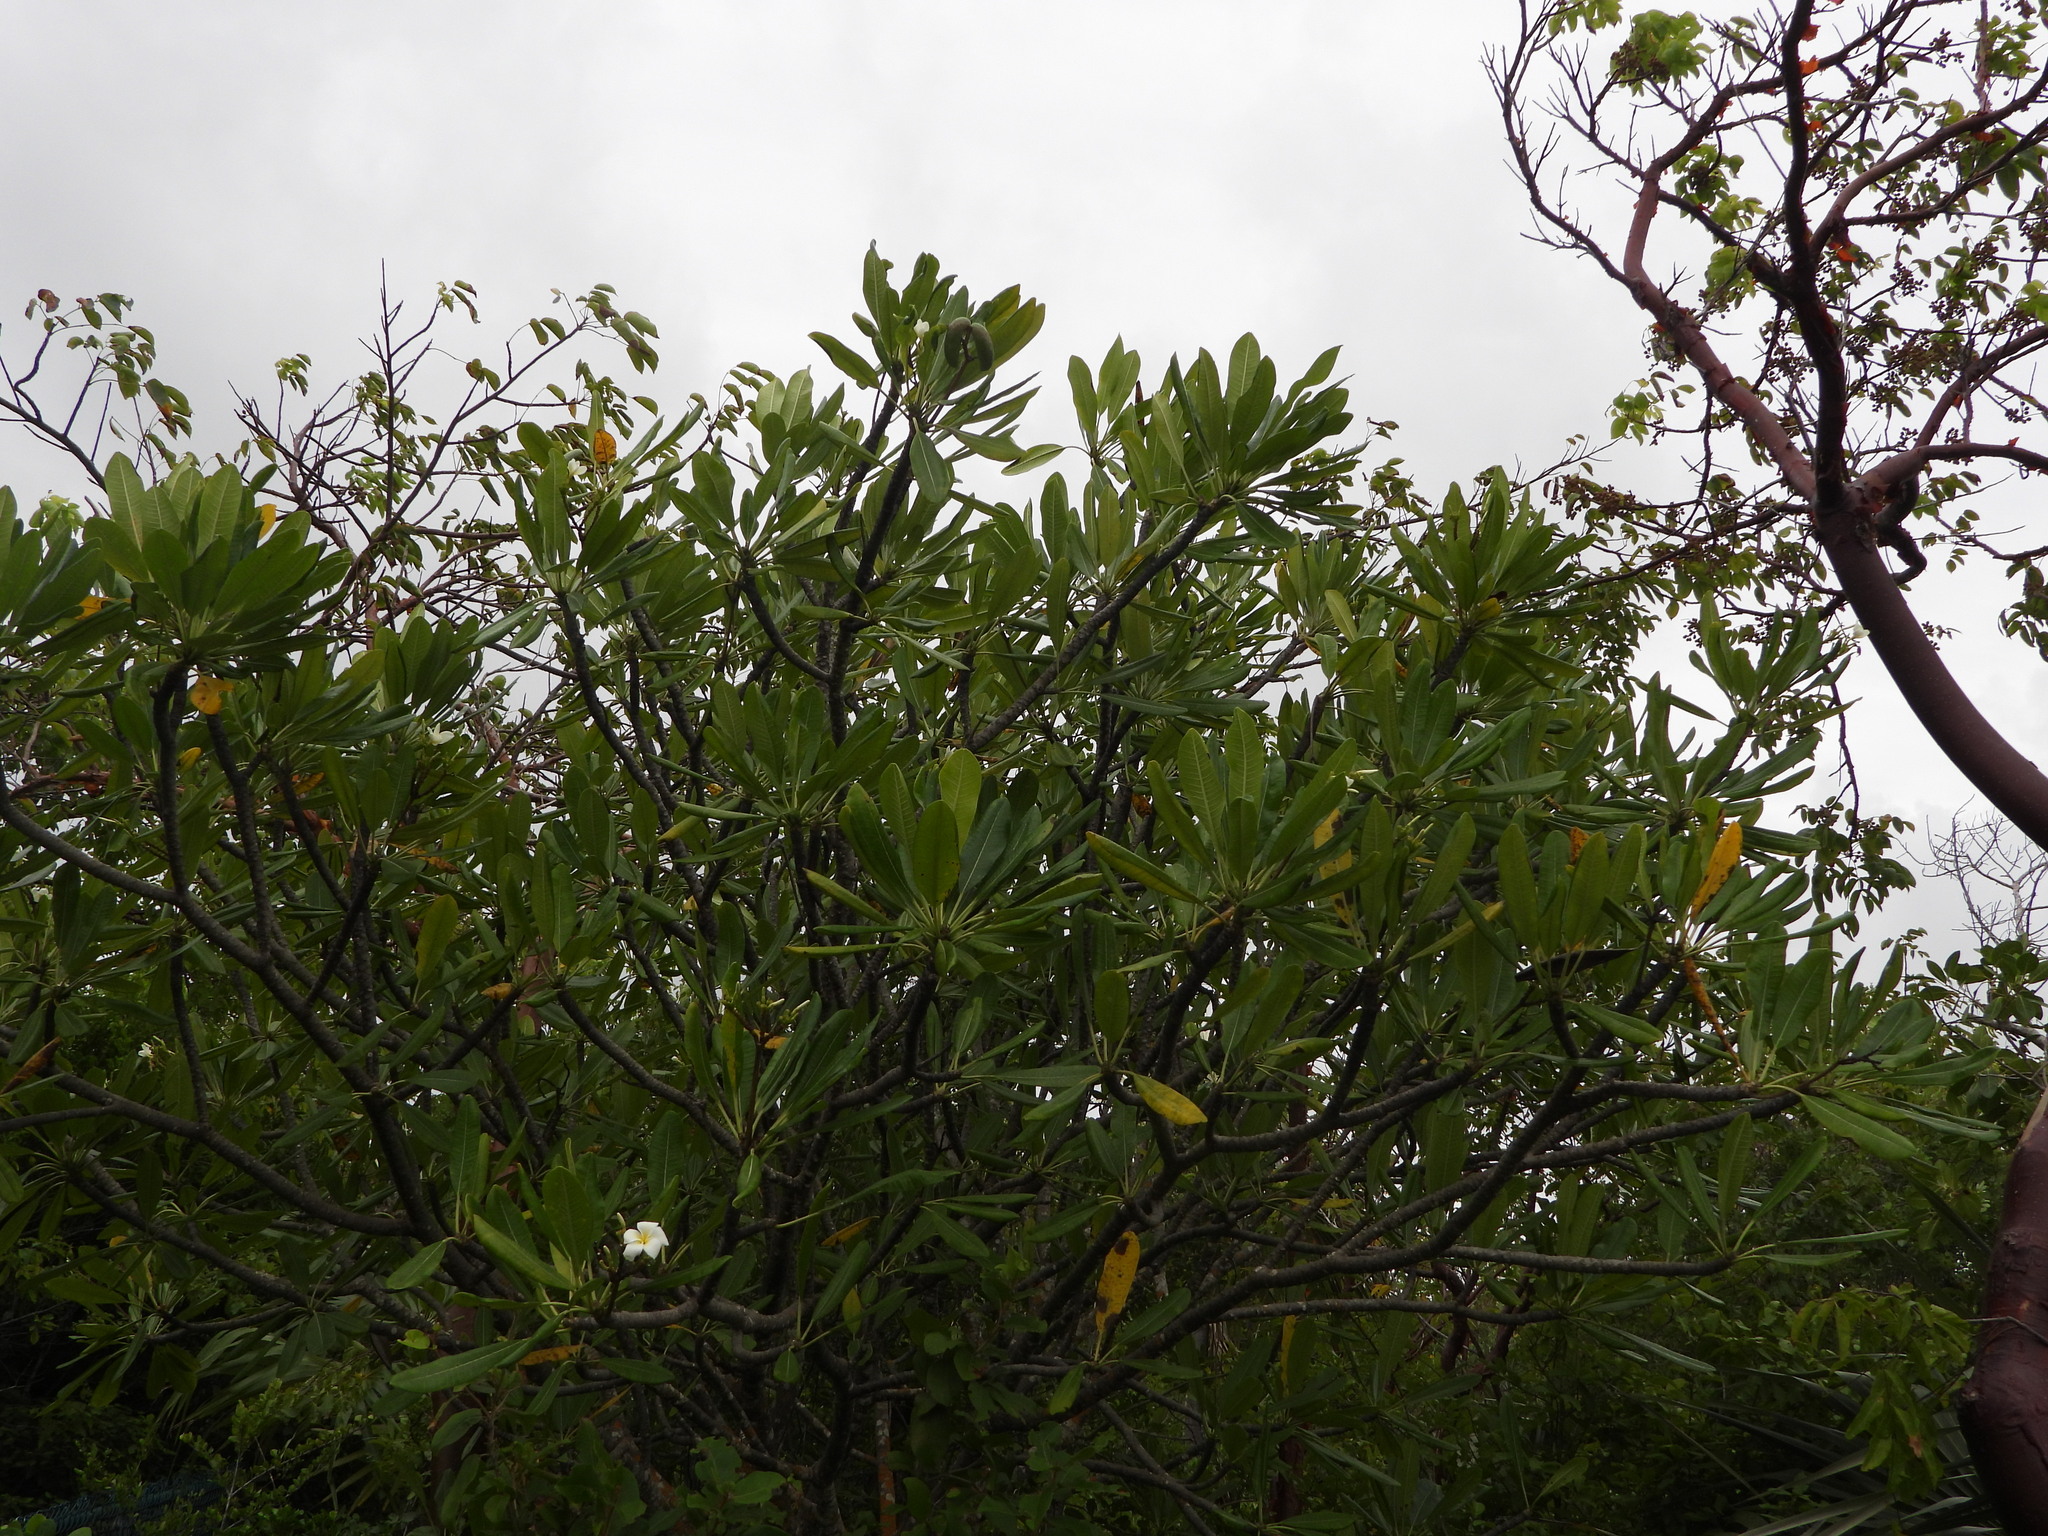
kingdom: Plantae
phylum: Tracheophyta
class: Magnoliopsida
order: Gentianales
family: Apocynaceae
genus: Plumeria
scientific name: Plumeria obtusa
